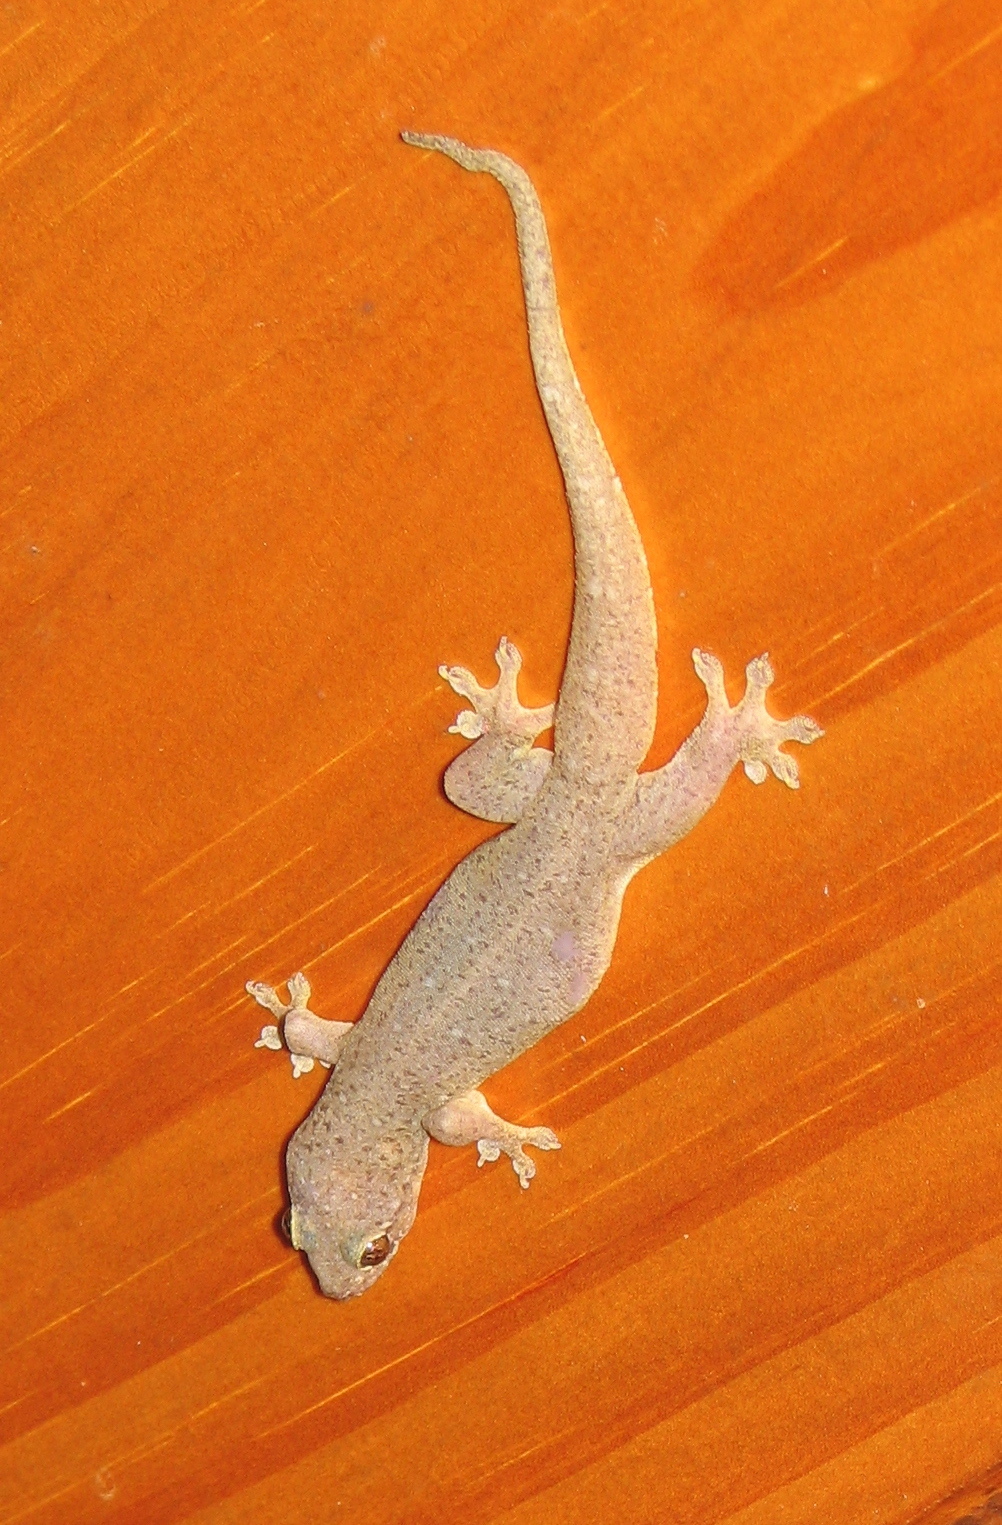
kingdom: Animalia
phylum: Chordata
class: Squamata
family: Gekkonidae
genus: Gehyra
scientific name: Gehyra mutilata
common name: Stump-toed gecko
